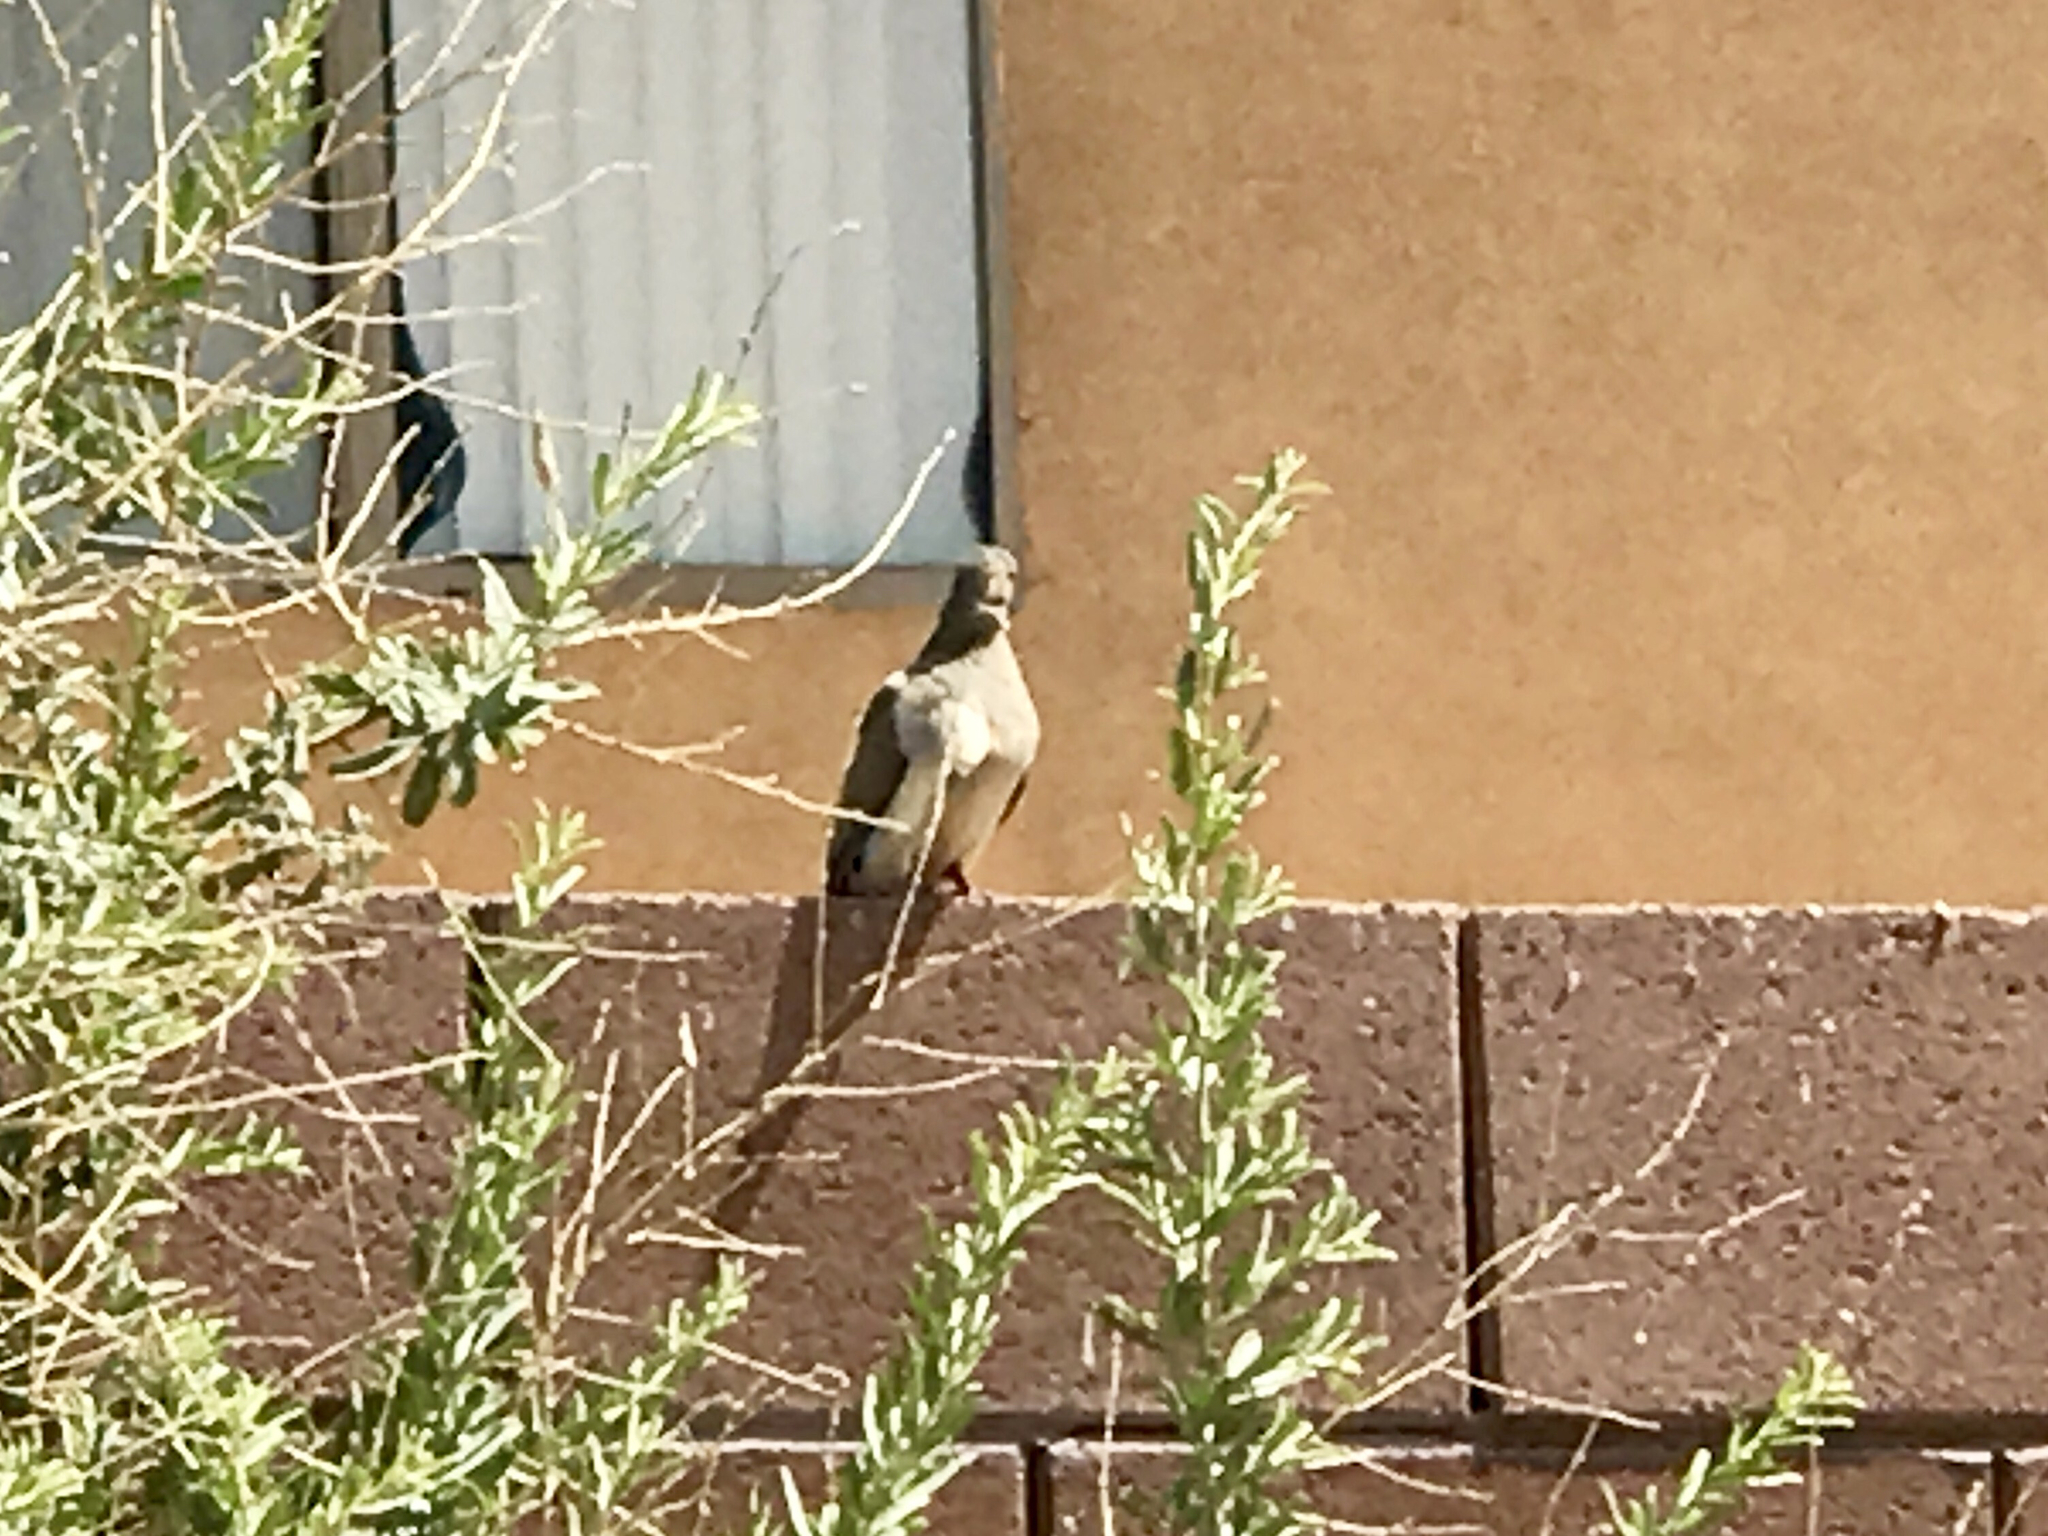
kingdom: Animalia
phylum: Chordata
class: Aves
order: Columbiformes
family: Columbidae
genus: Zenaida
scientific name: Zenaida macroura
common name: Mourning dove
